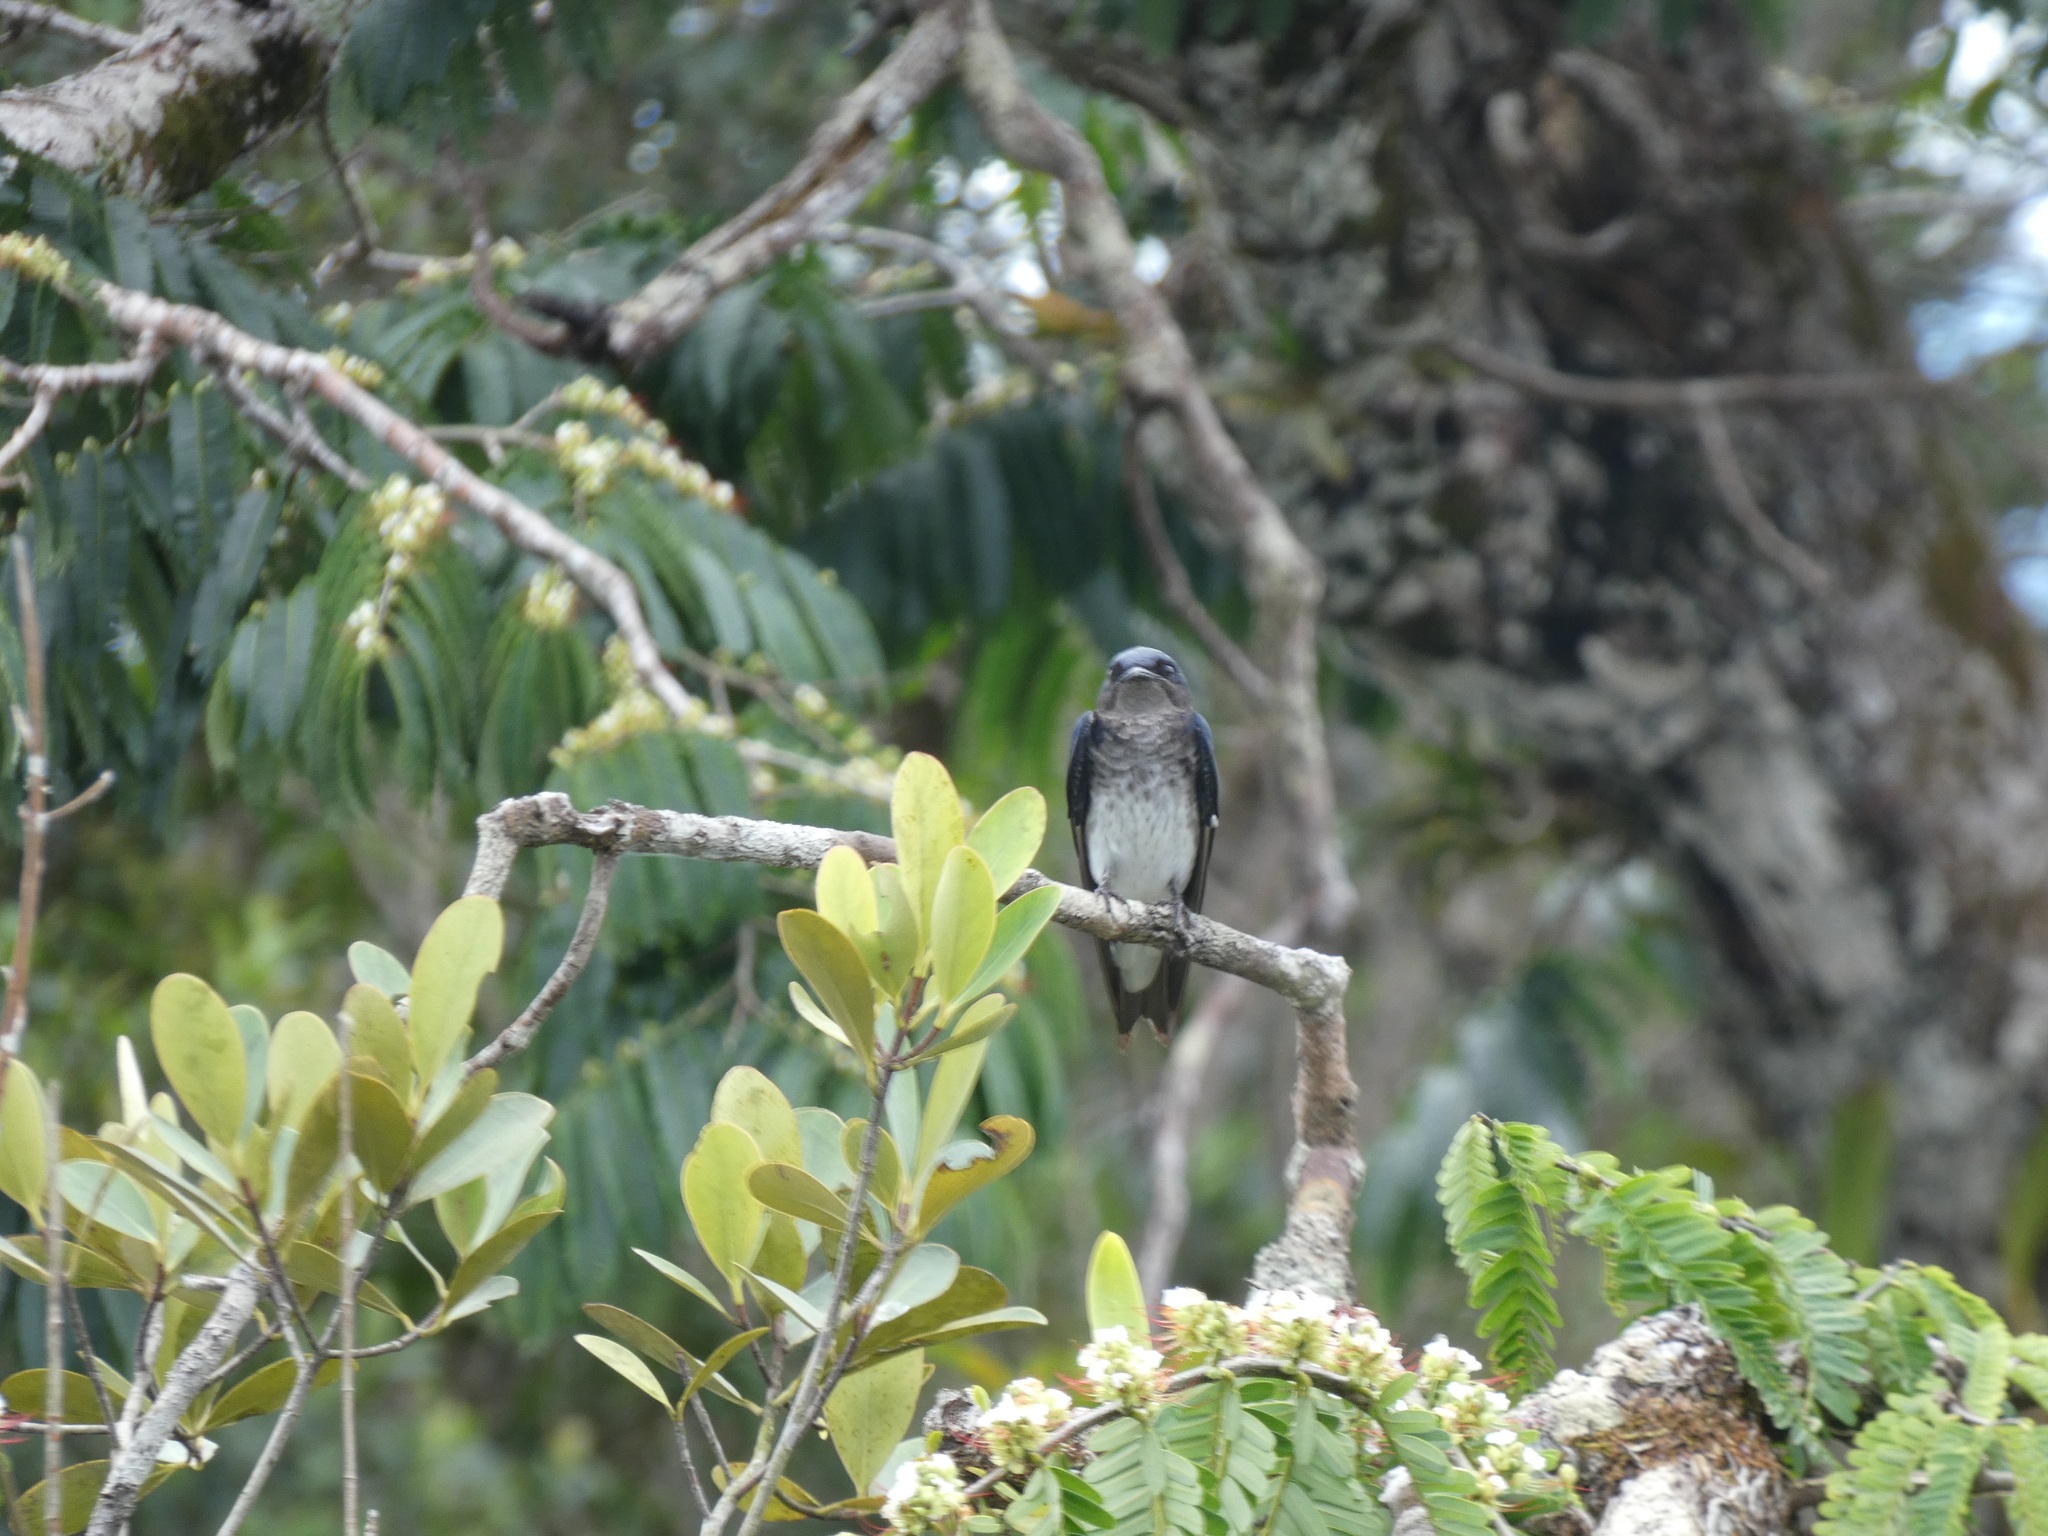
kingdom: Animalia
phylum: Chordata
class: Aves
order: Passeriformes
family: Hirundinidae
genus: Progne
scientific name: Progne chalybea
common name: Grey-breasted martin
